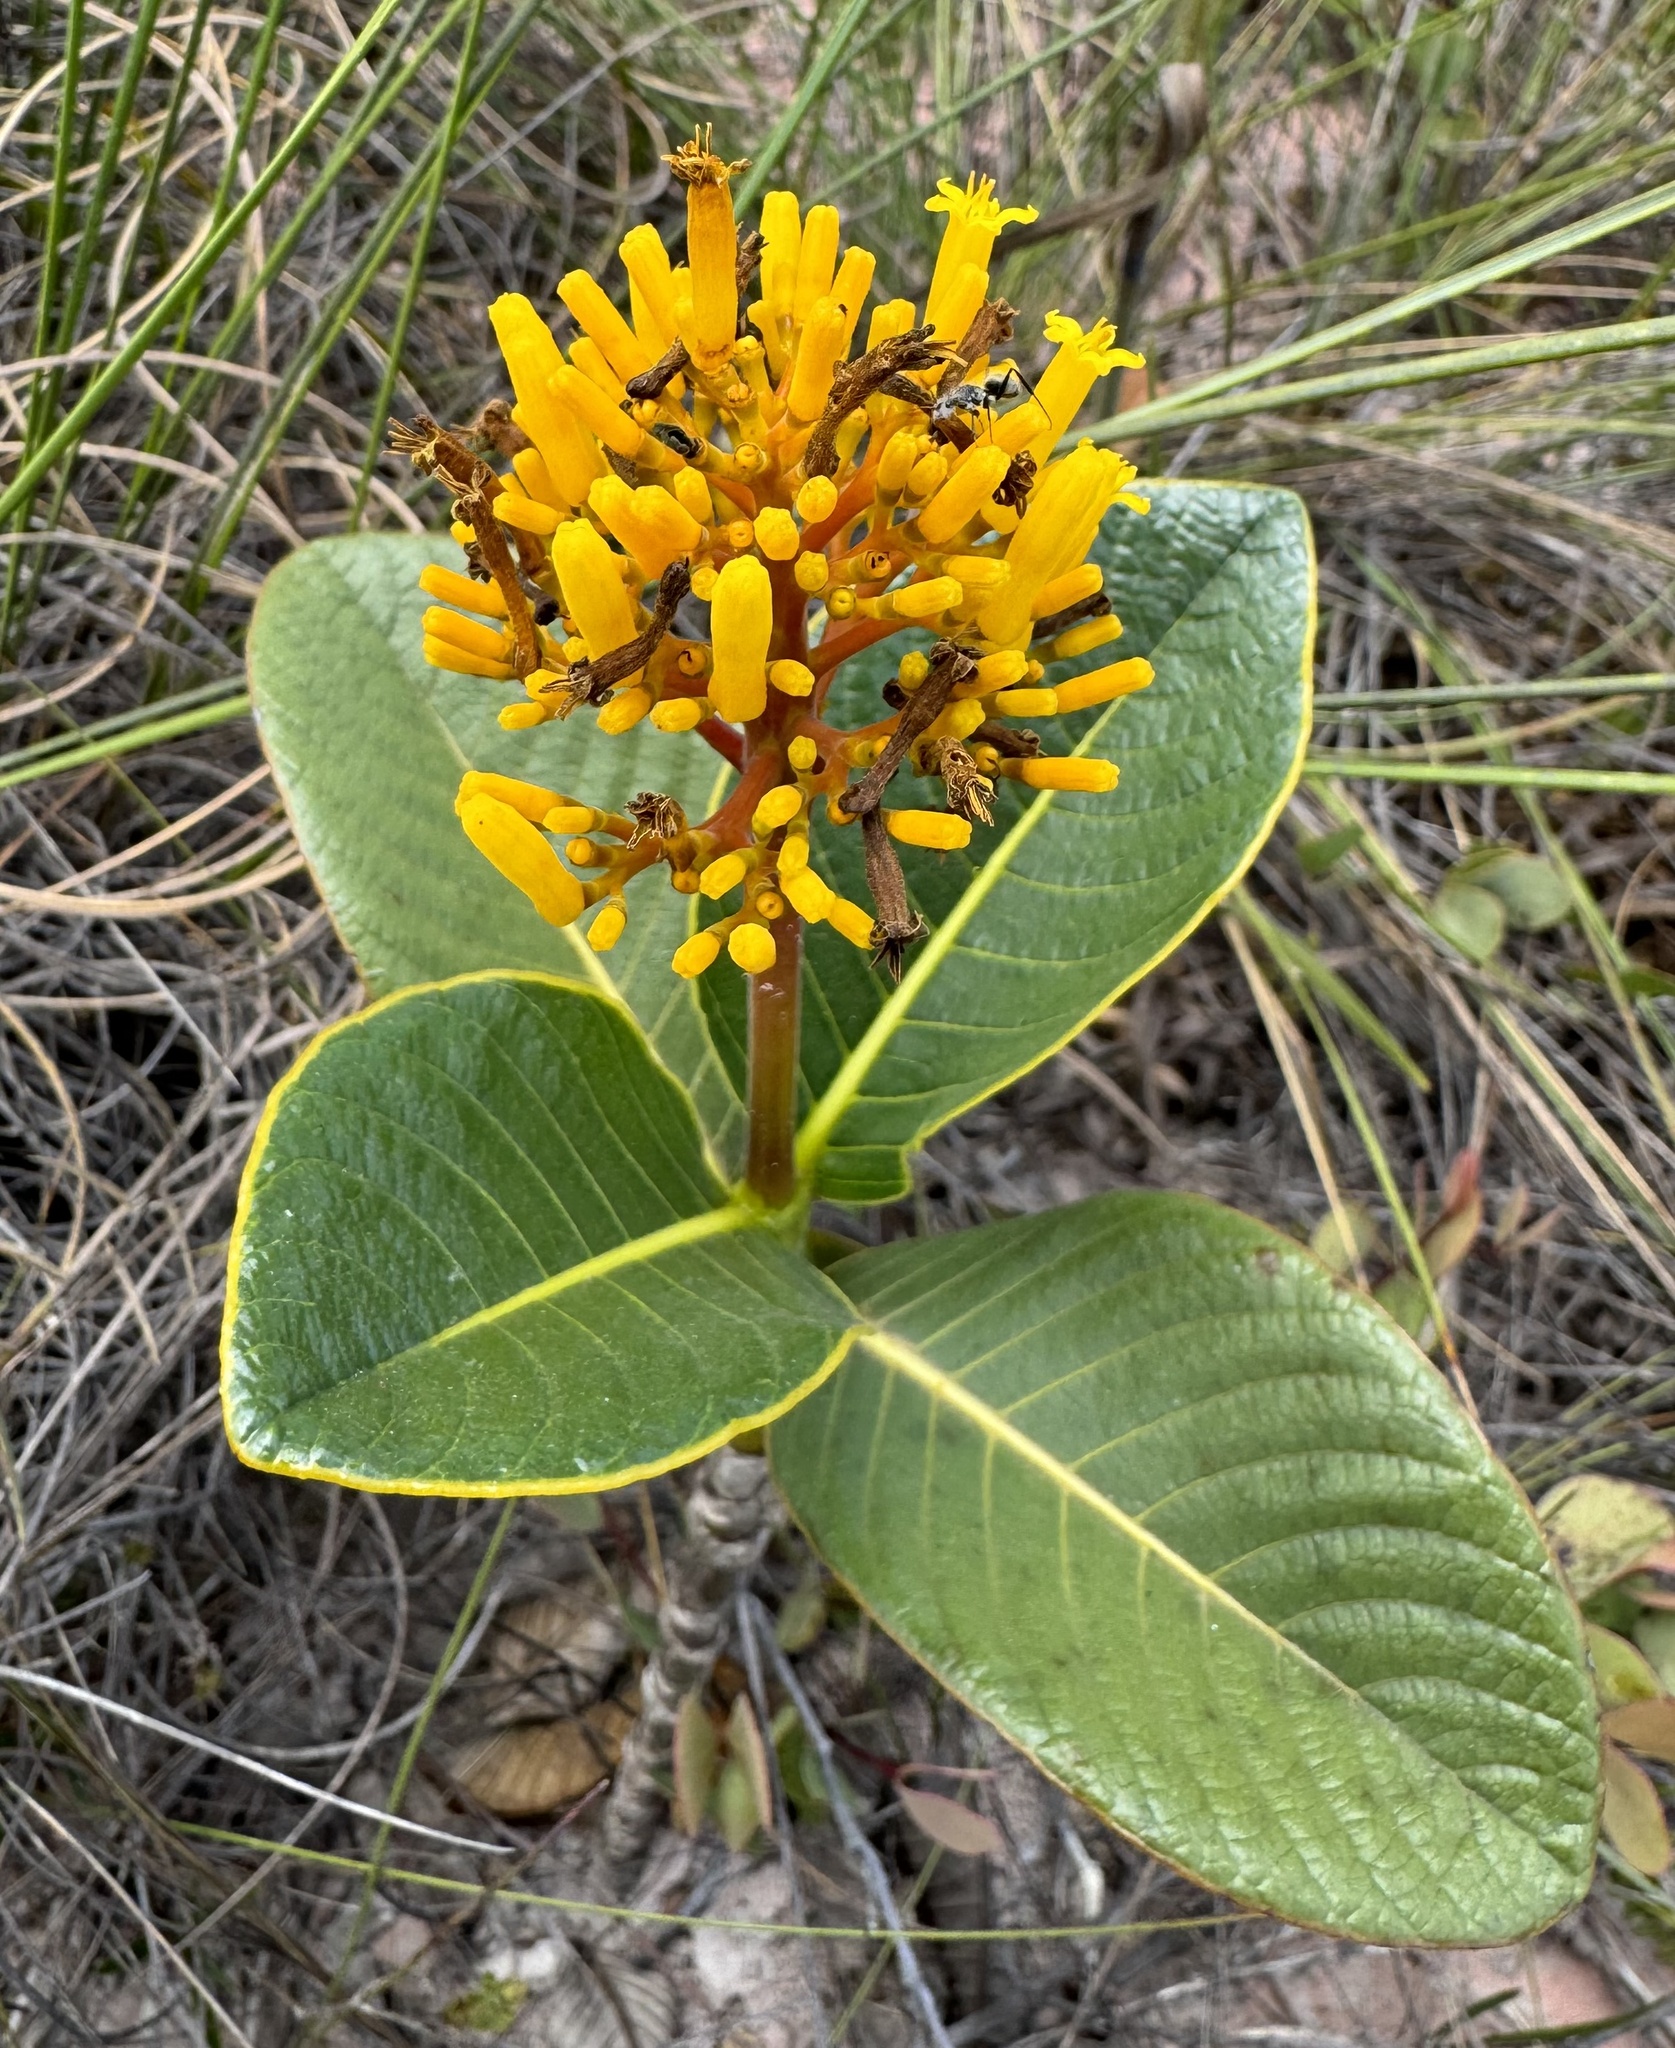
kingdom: Plantae
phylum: Tracheophyta
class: Magnoliopsida
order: Gentianales
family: Rubiaceae
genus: Palicourea
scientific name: Palicourea rigida
